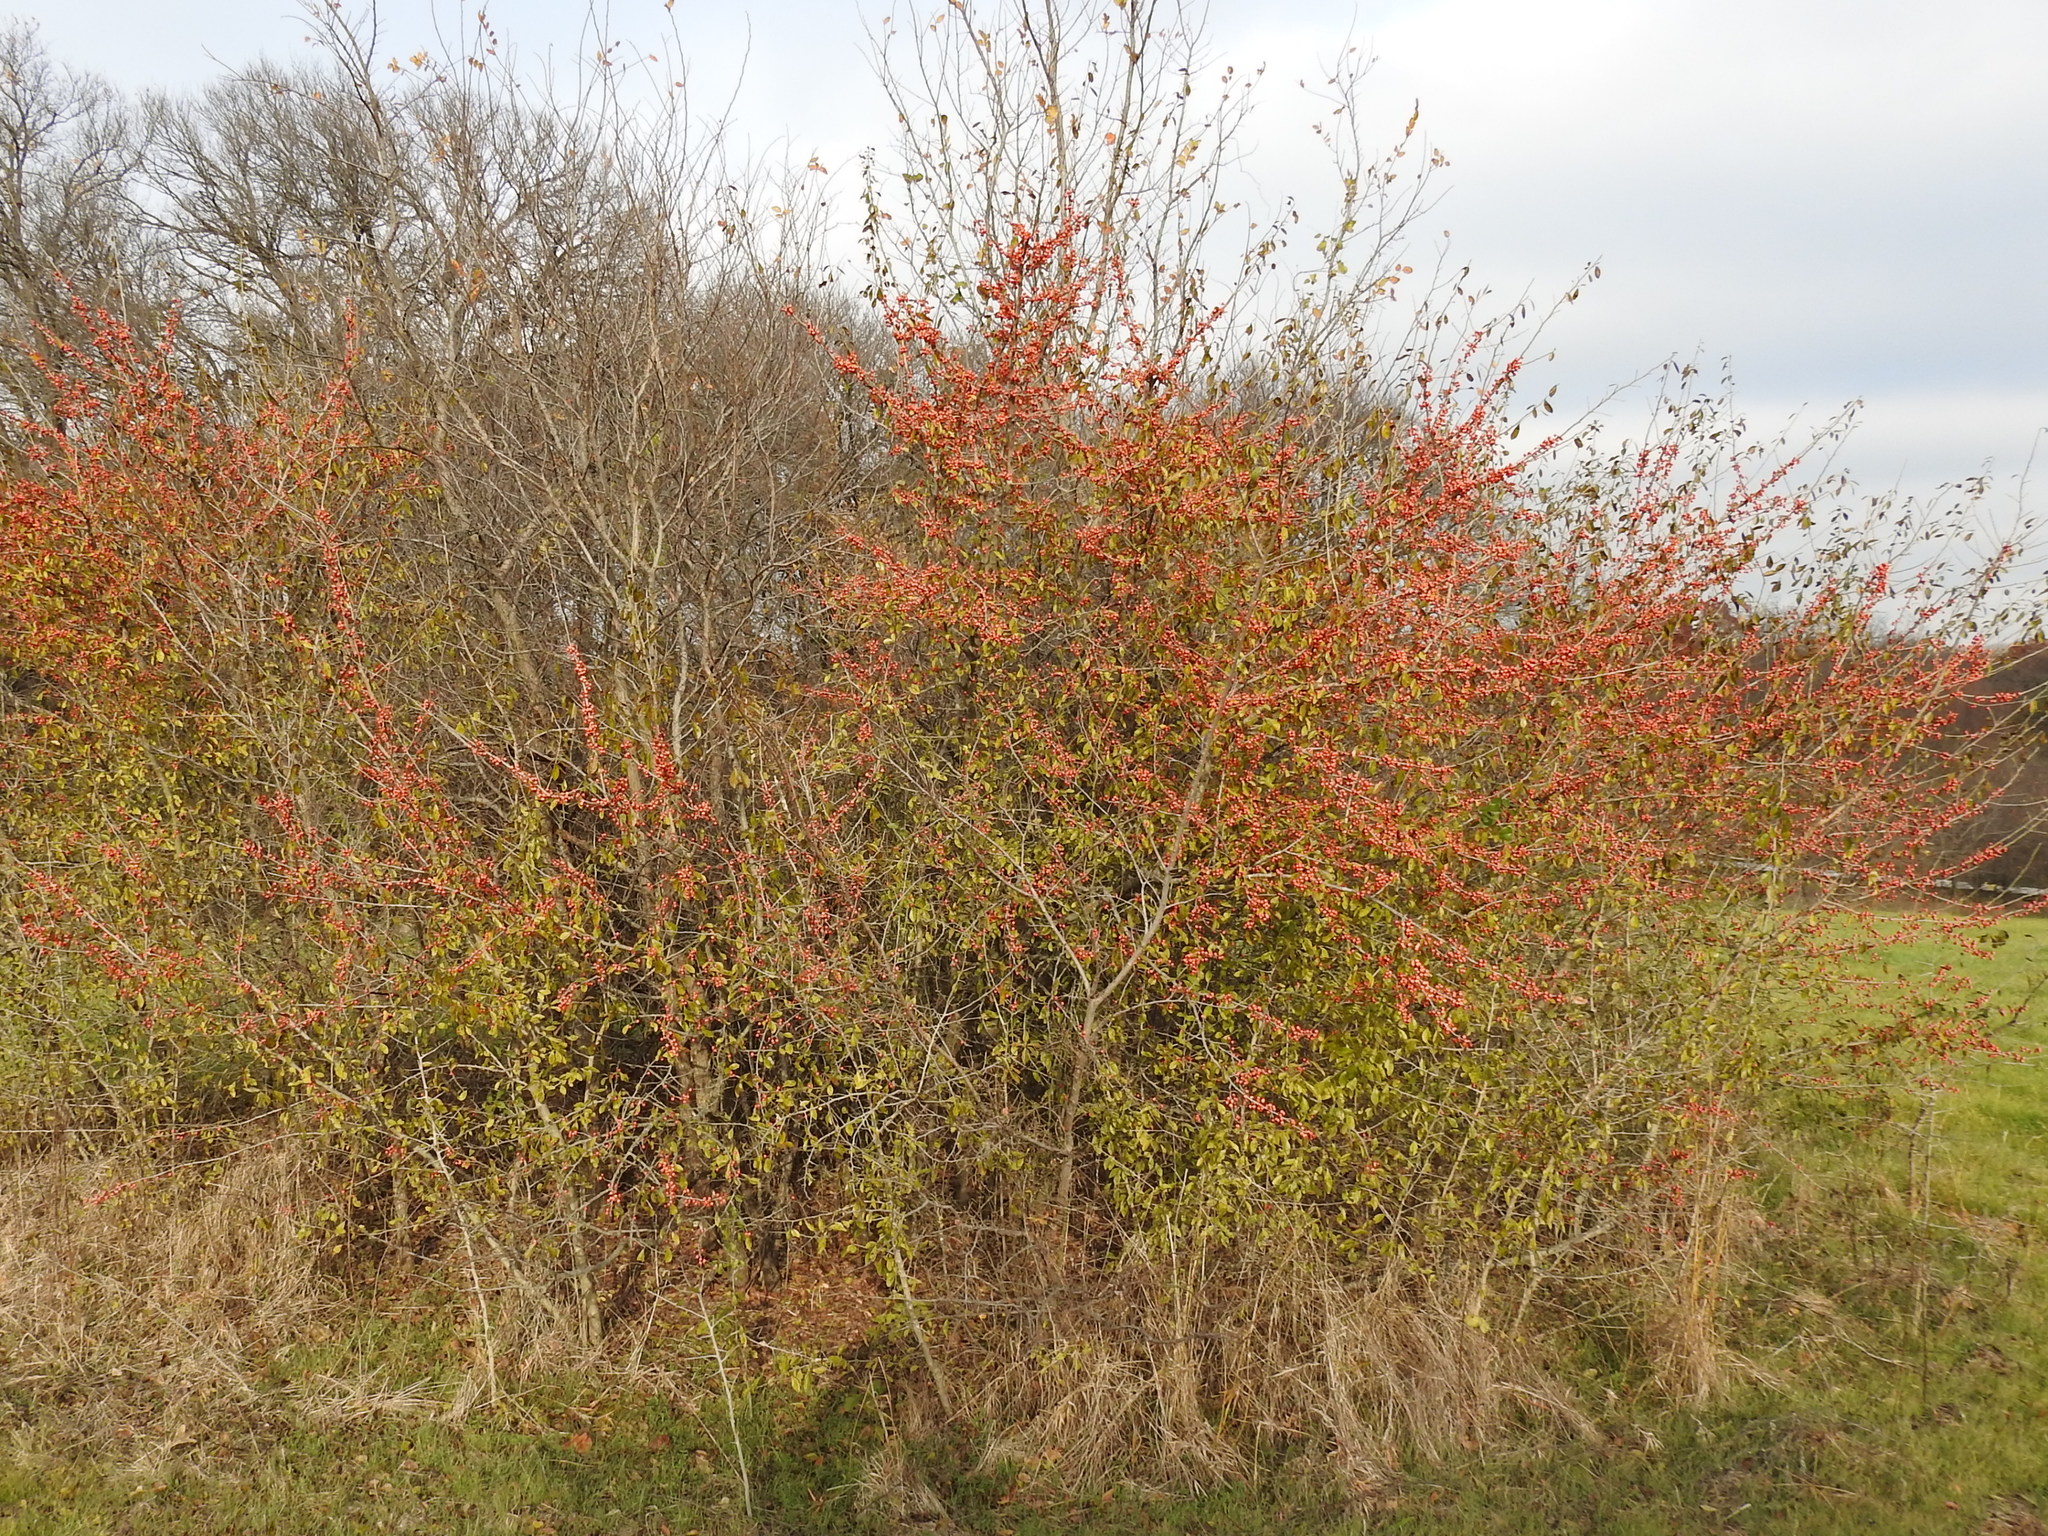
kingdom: Plantae
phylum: Tracheophyta
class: Magnoliopsida
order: Aquifoliales
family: Aquifoliaceae
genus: Ilex
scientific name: Ilex decidua
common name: Possum-haw
